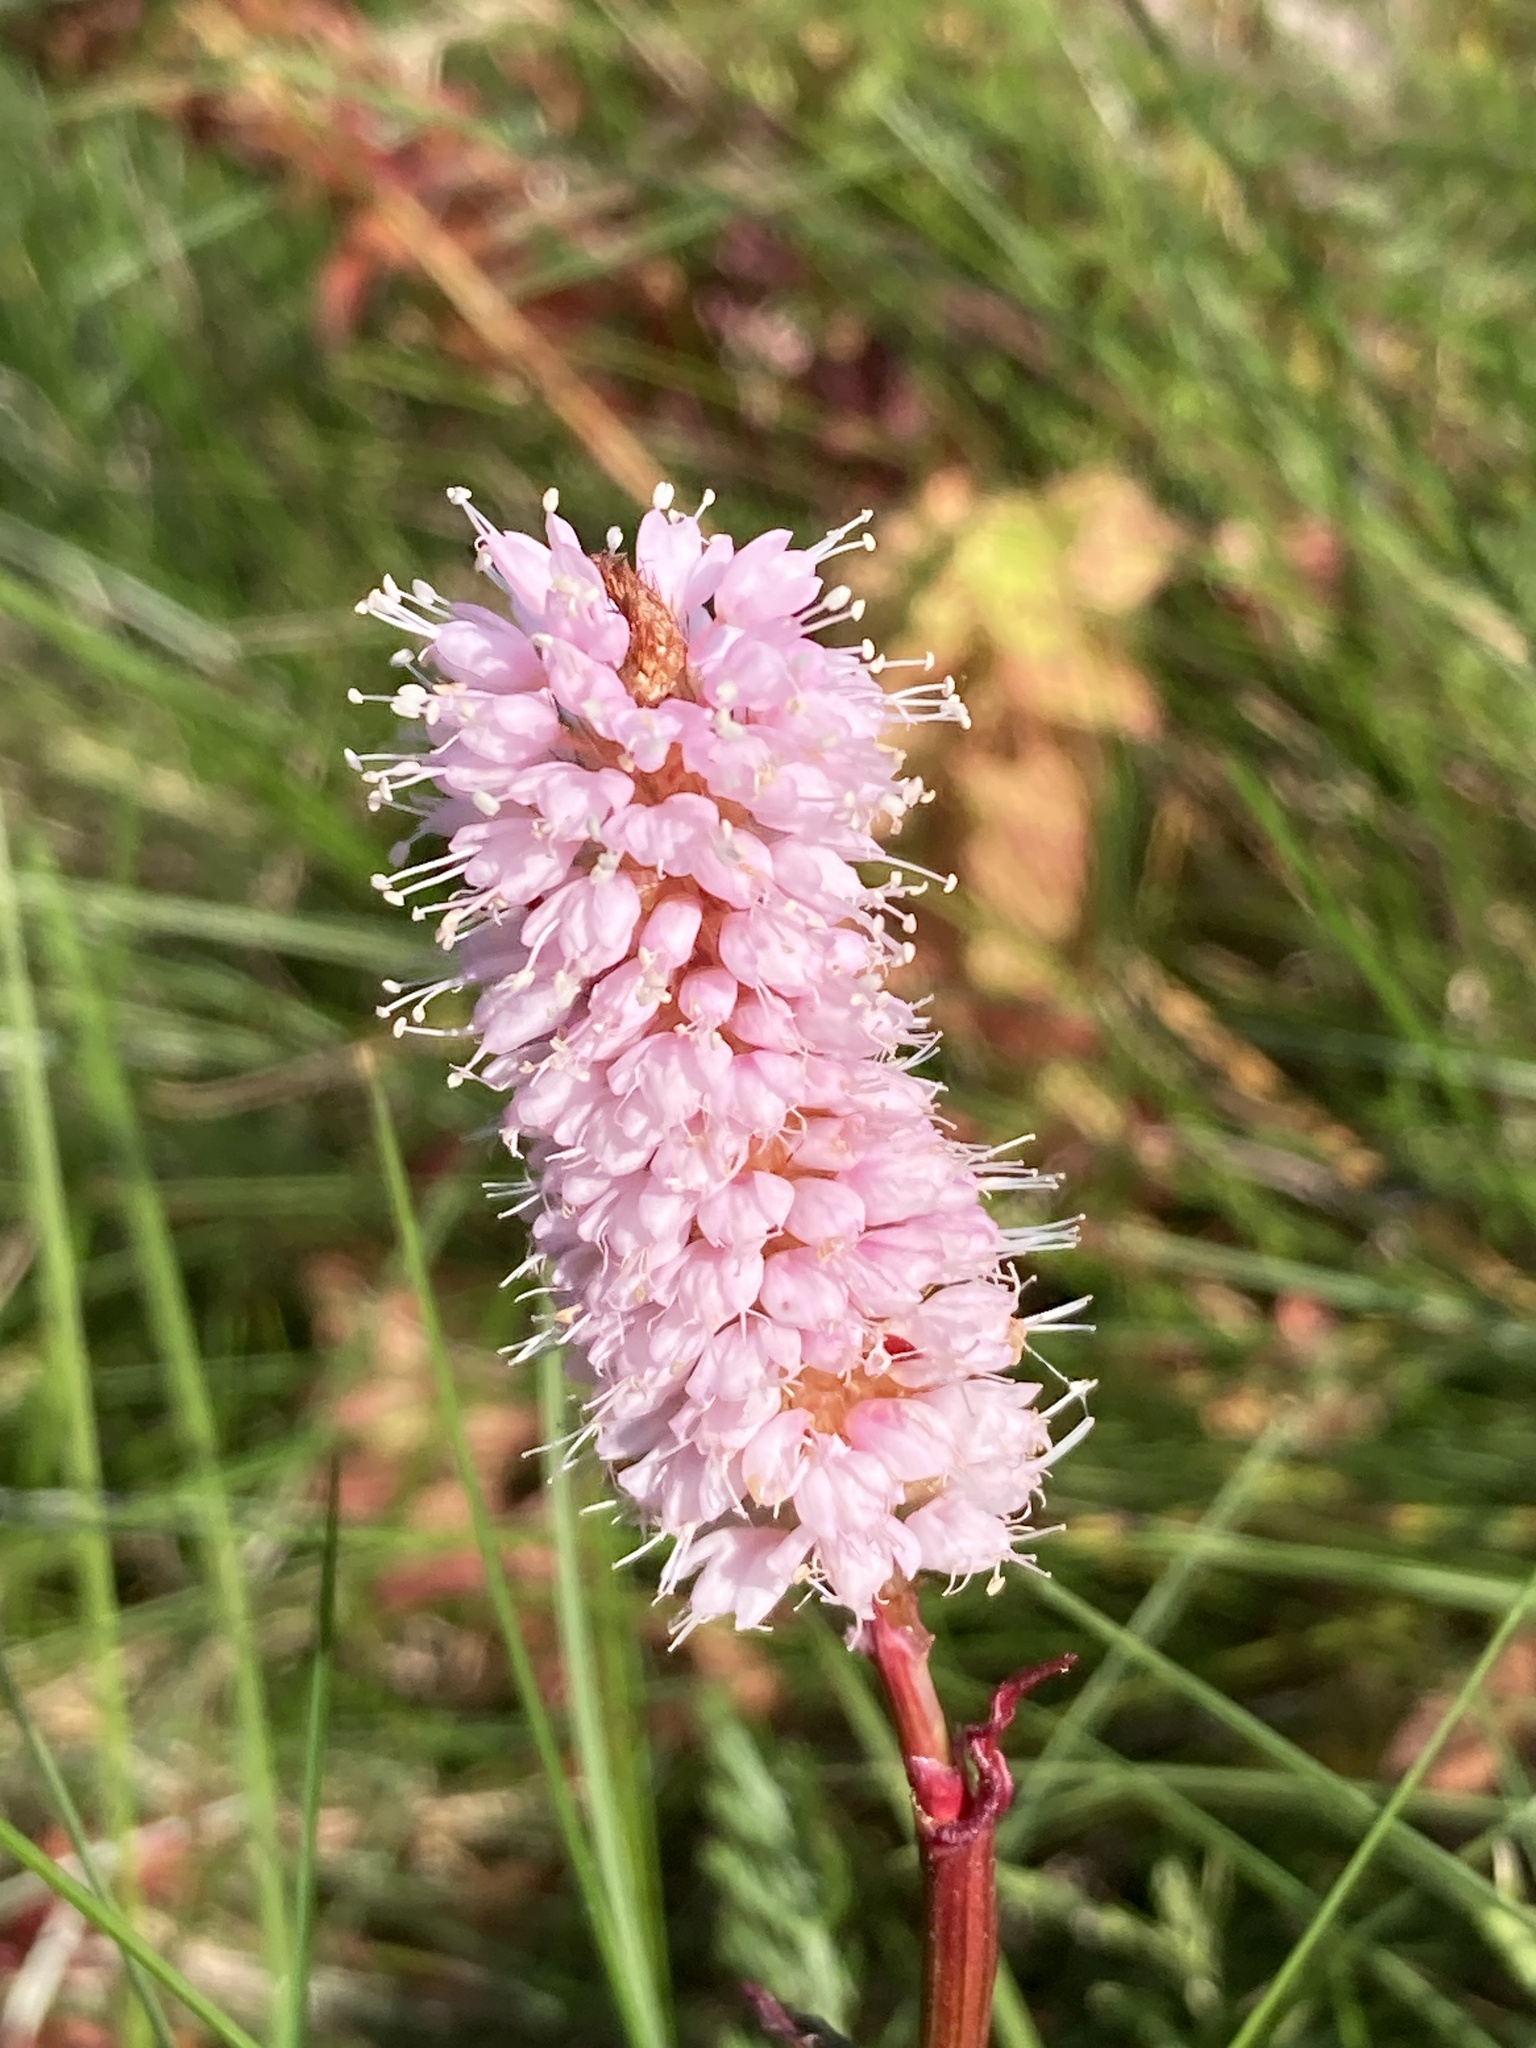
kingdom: Plantae
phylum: Tracheophyta
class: Magnoliopsida
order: Caryophyllales
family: Polygonaceae
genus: Bistorta
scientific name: Bistorta officinalis
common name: Common bistort
